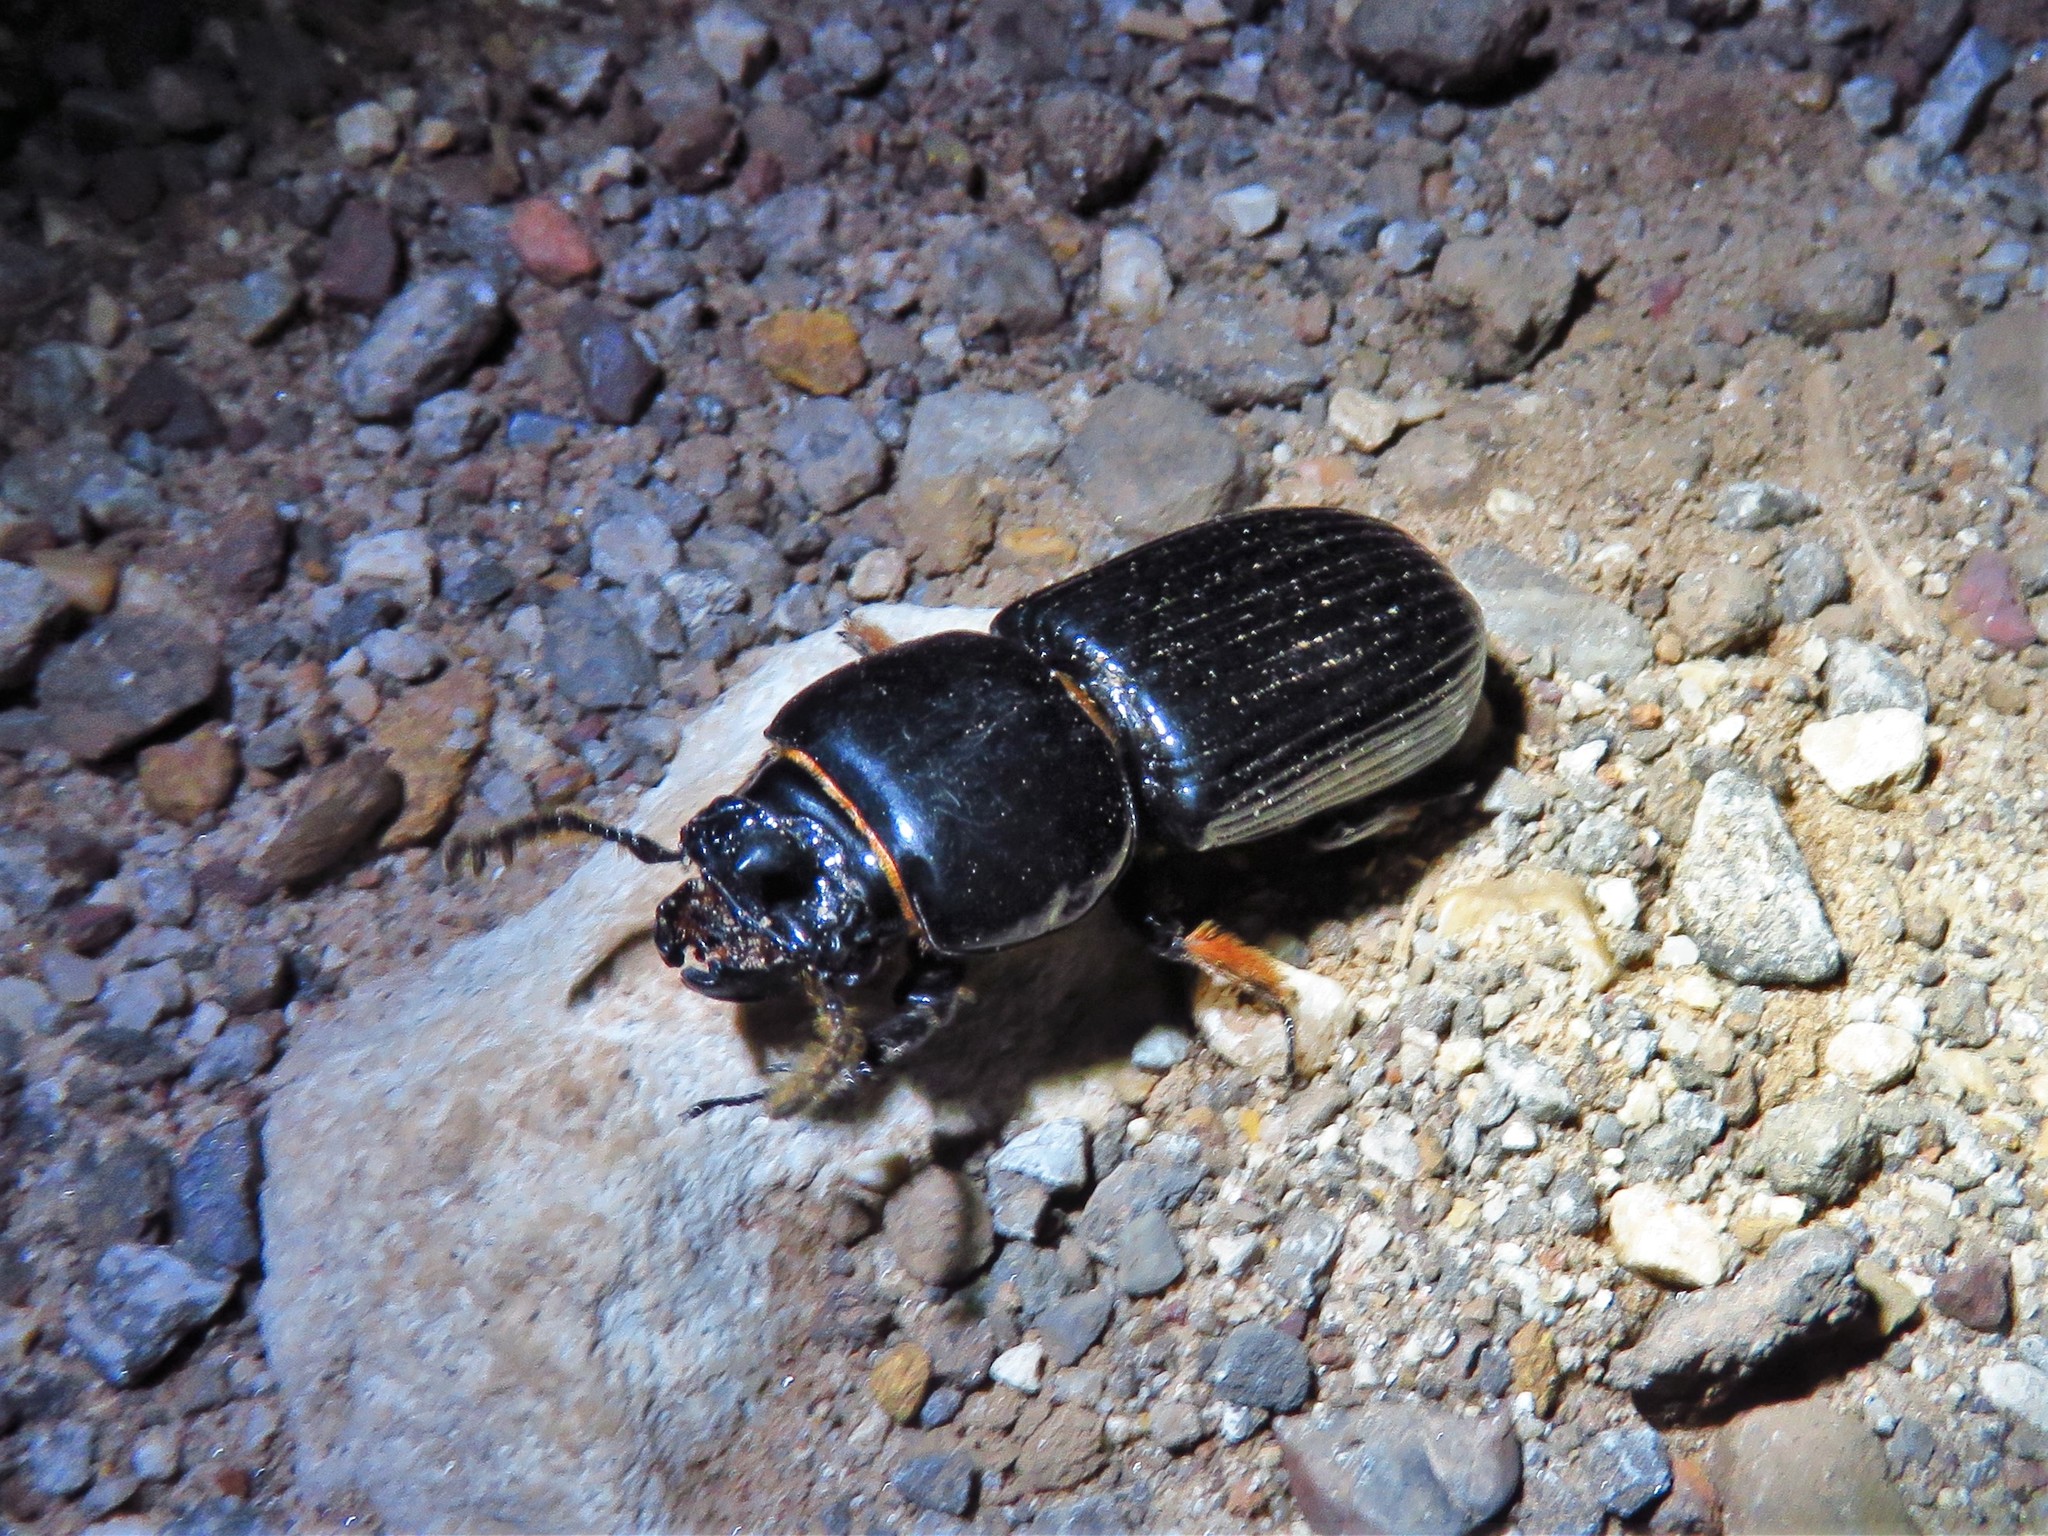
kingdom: Animalia
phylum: Arthropoda
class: Insecta
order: Coleoptera
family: Passalidae
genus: Odontotaenius
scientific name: Odontotaenius disjunctus
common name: Patent leather beetle
